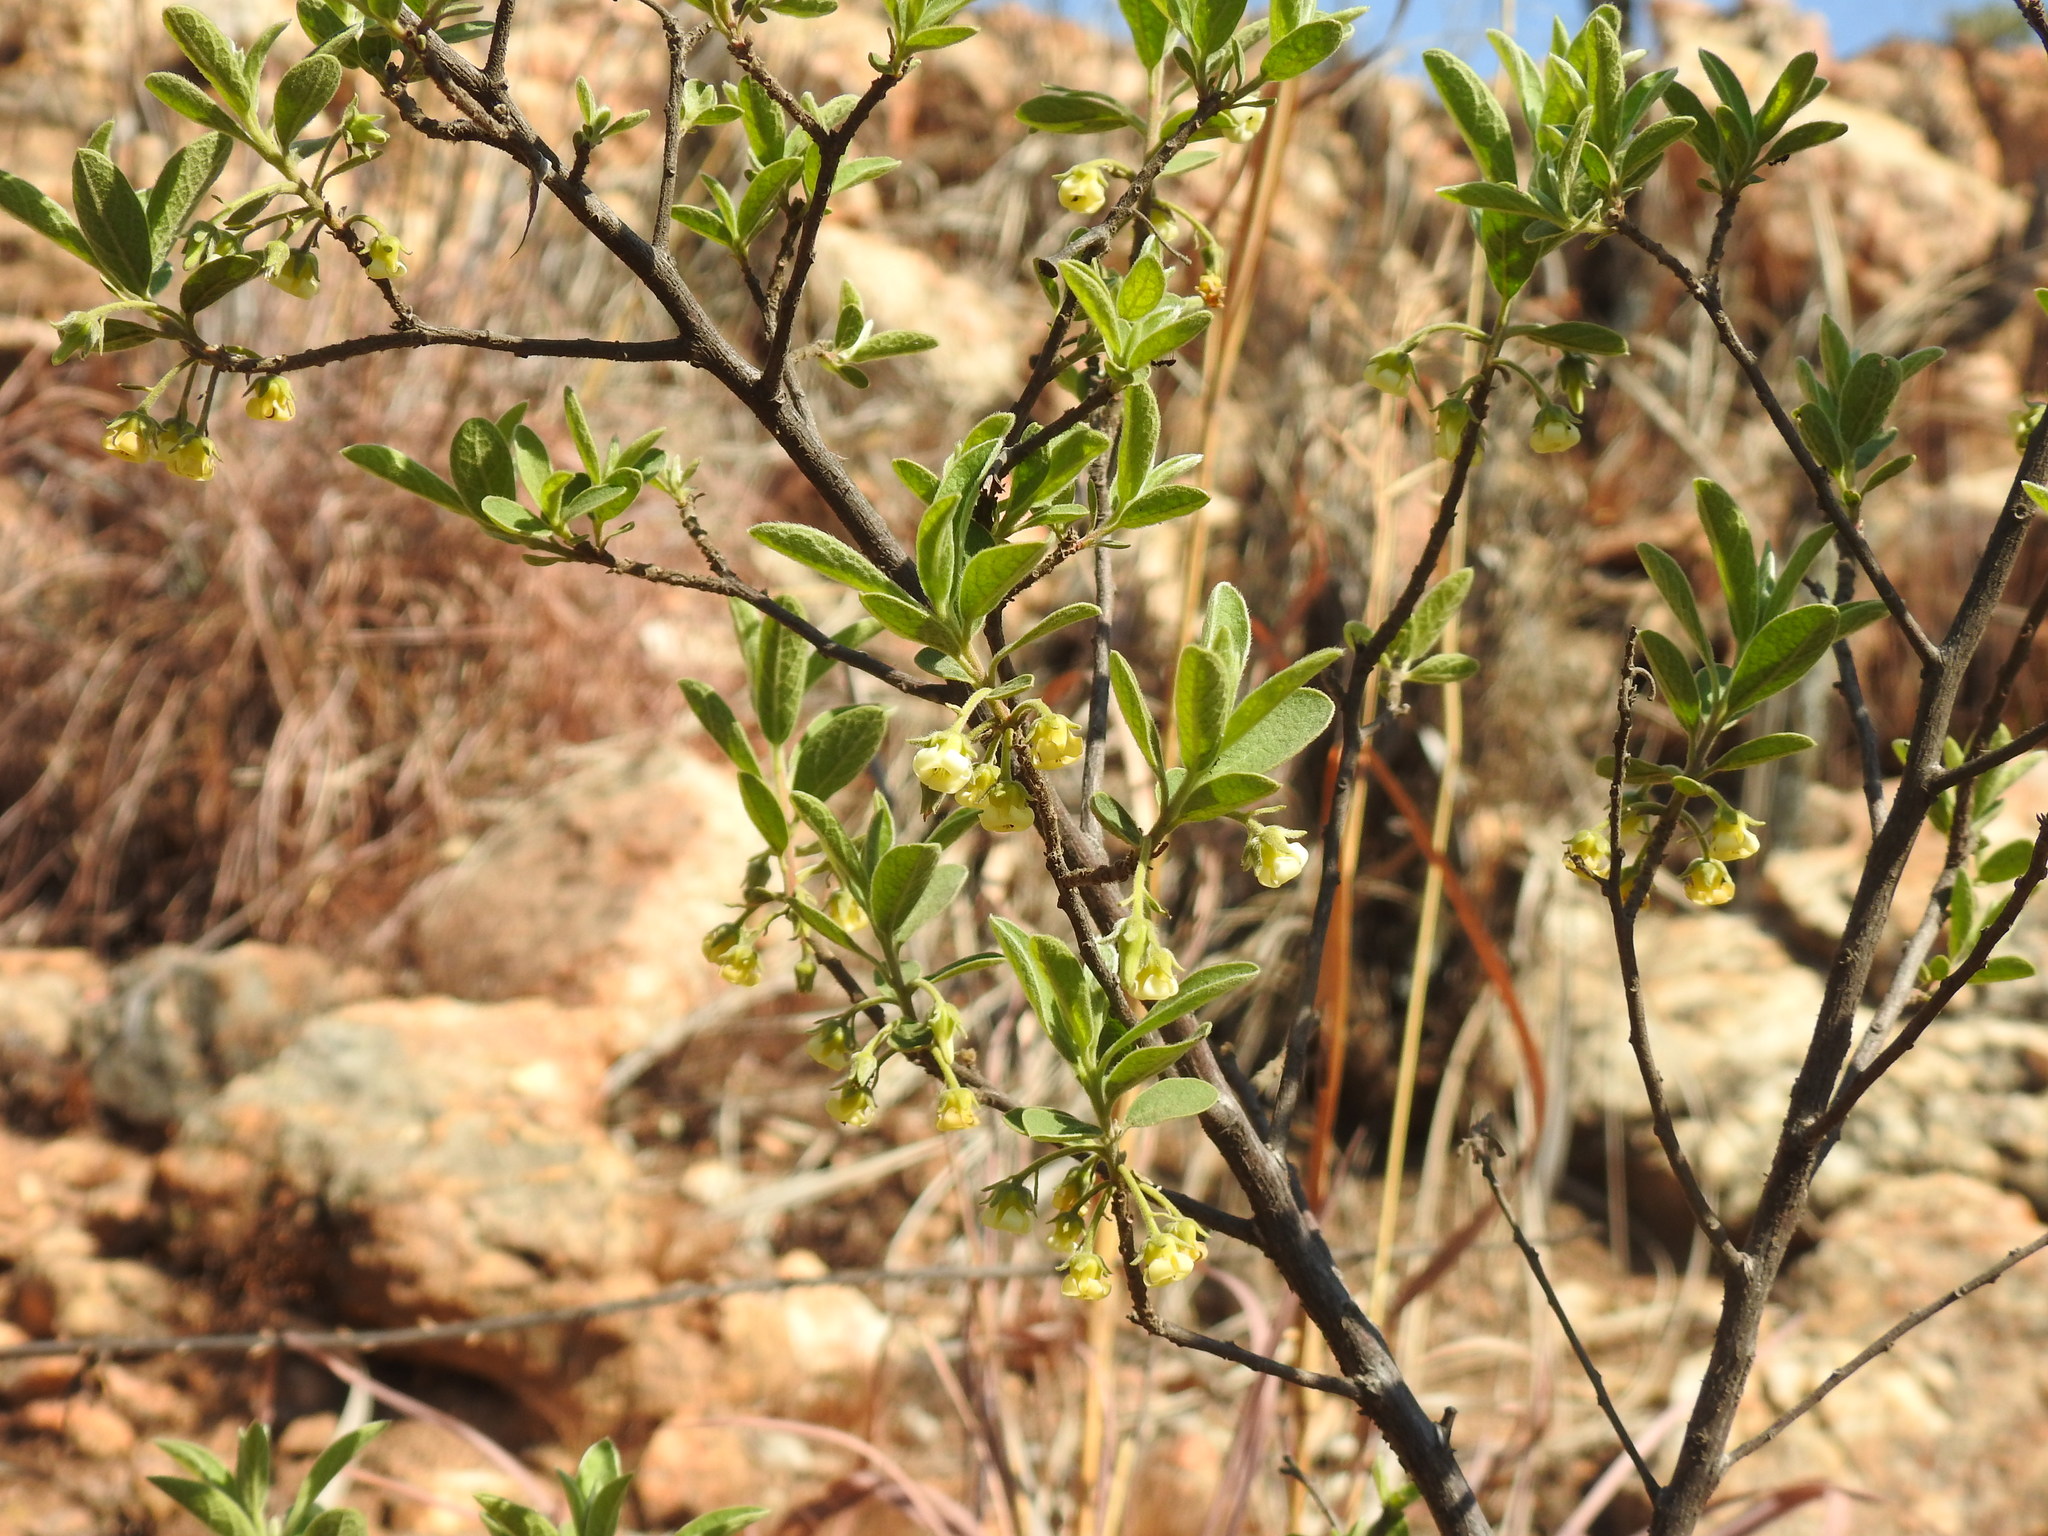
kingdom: Plantae
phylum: Tracheophyta
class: Magnoliopsida
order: Ericales
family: Ebenaceae
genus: Diospyros
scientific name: Diospyros lycioides
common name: Red star apple
